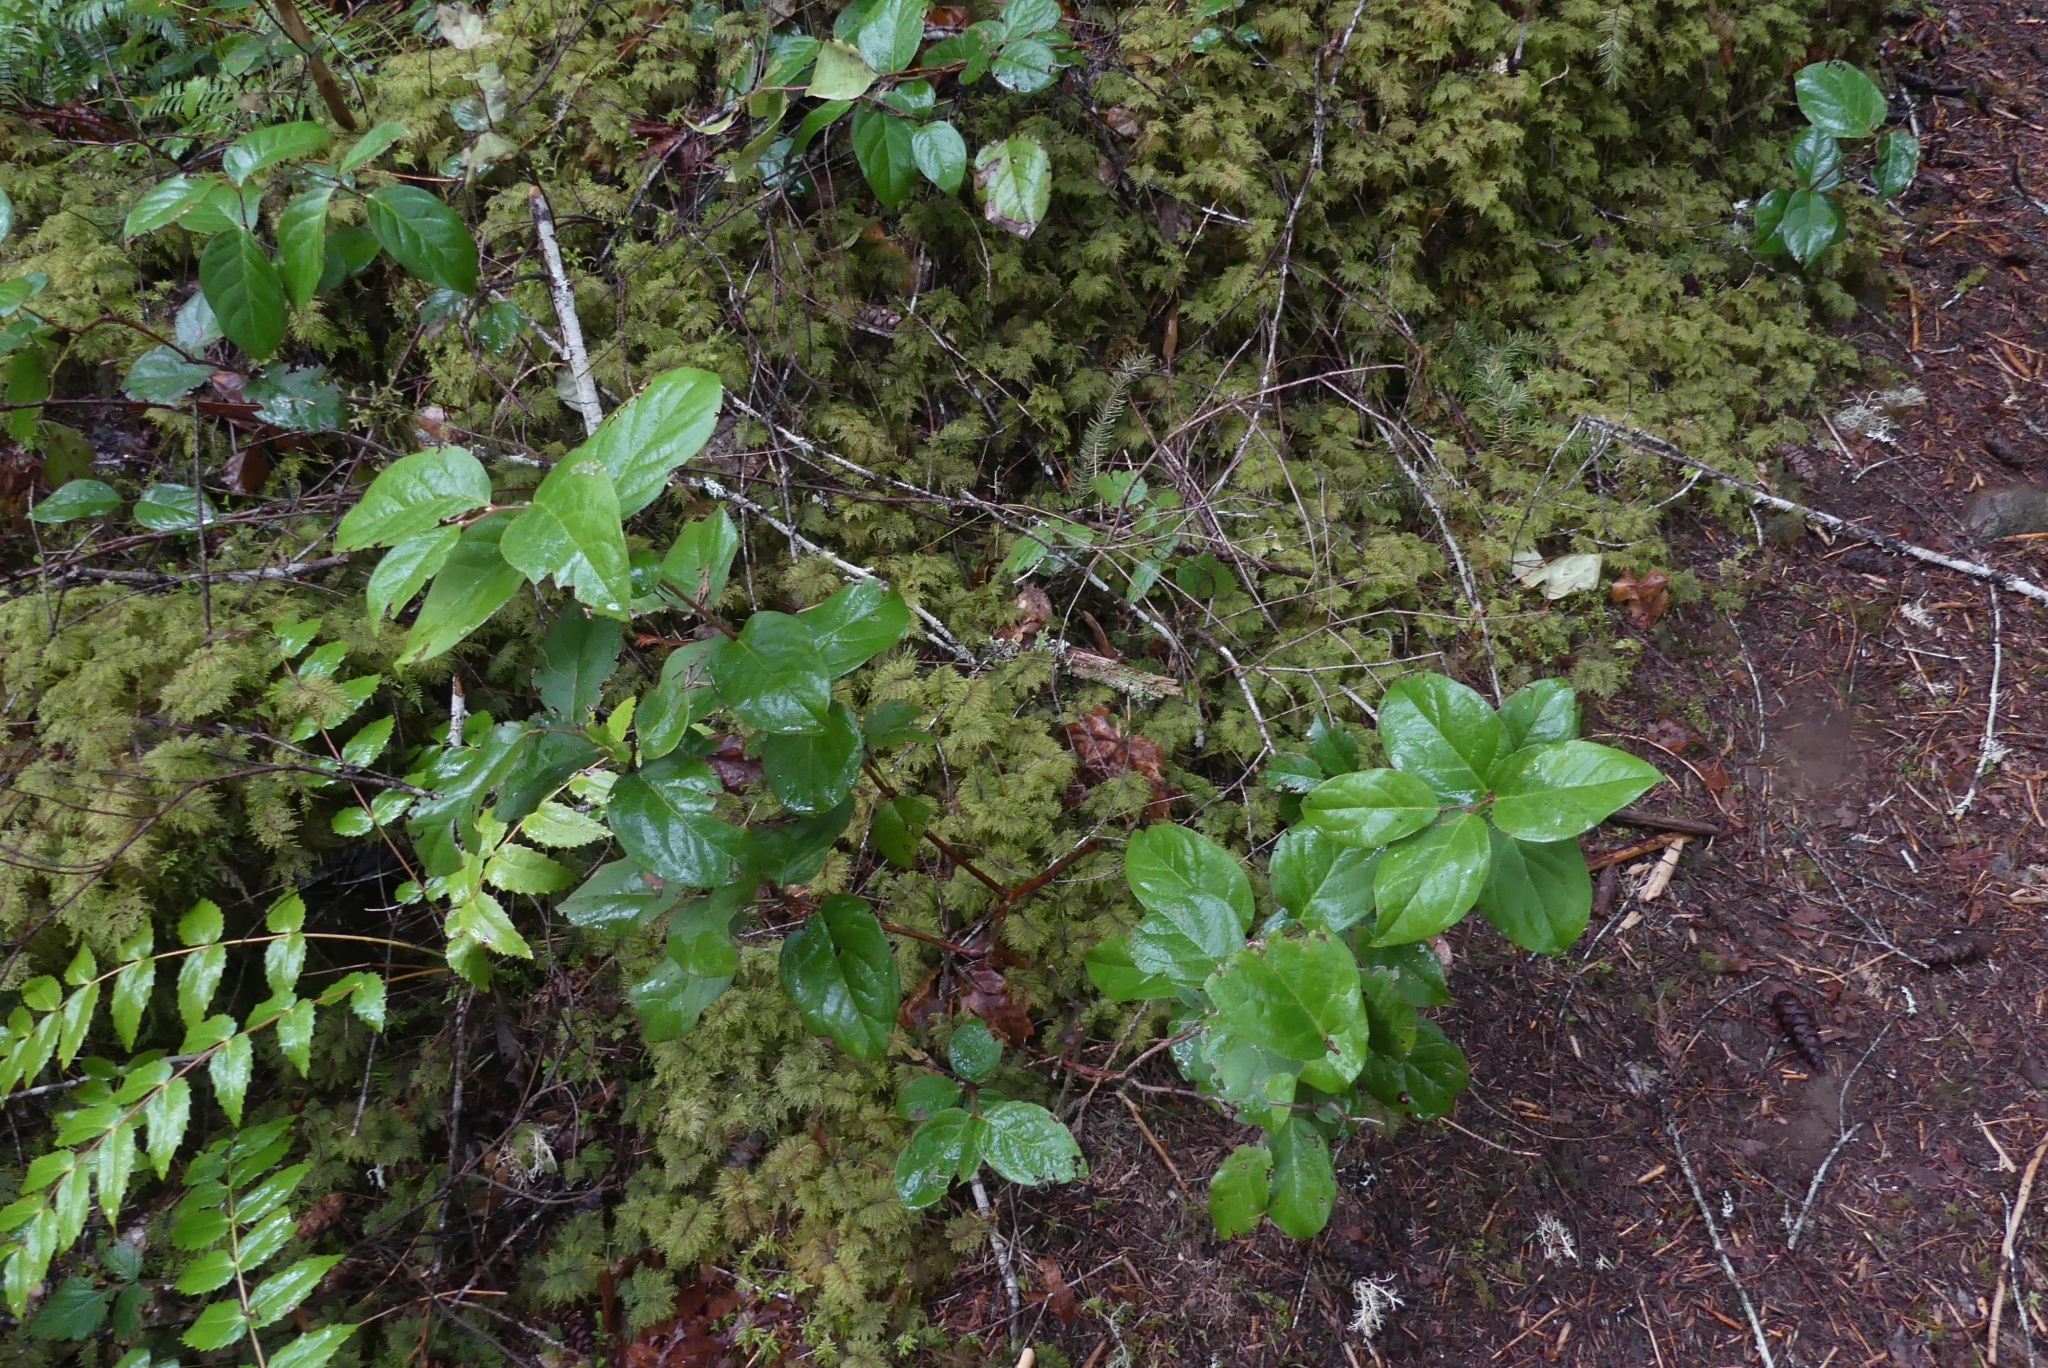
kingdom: Plantae
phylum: Tracheophyta
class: Magnoliopsida
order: Ericales
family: Ericaceae
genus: Gaultheria
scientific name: Gaultheria shallon
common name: Shallon
